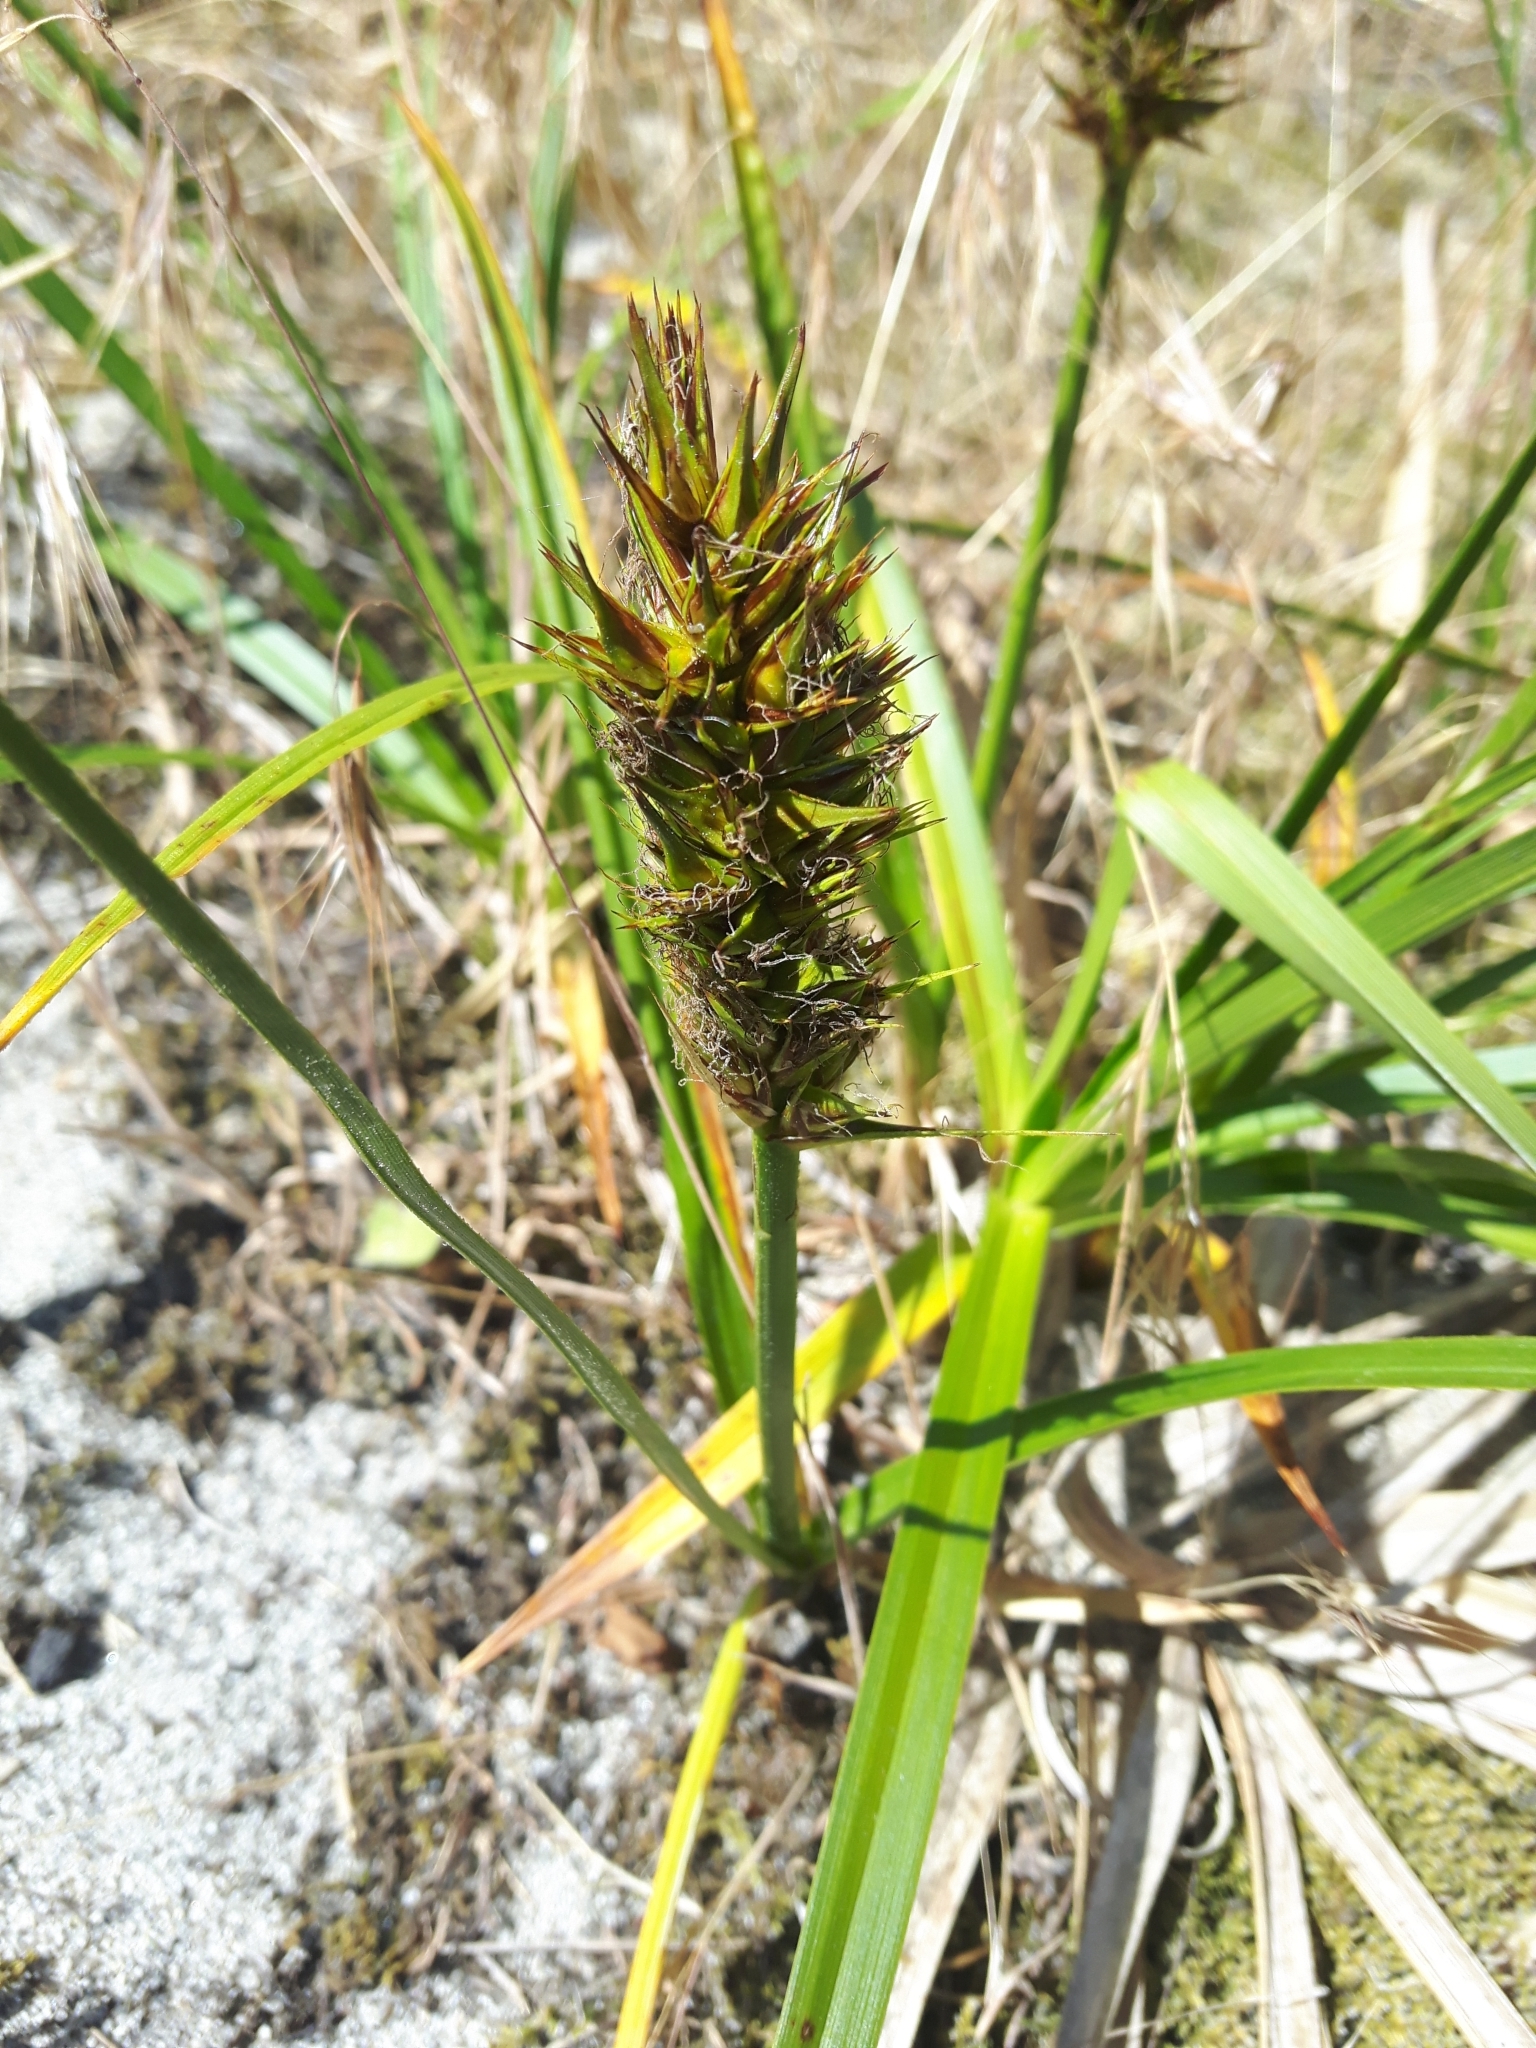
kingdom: Plantae
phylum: Tracheophyta
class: Liliopsida
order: Poales
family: Cyperaceae
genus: Carex
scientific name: Carex macrocephala
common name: Large-head sedge
